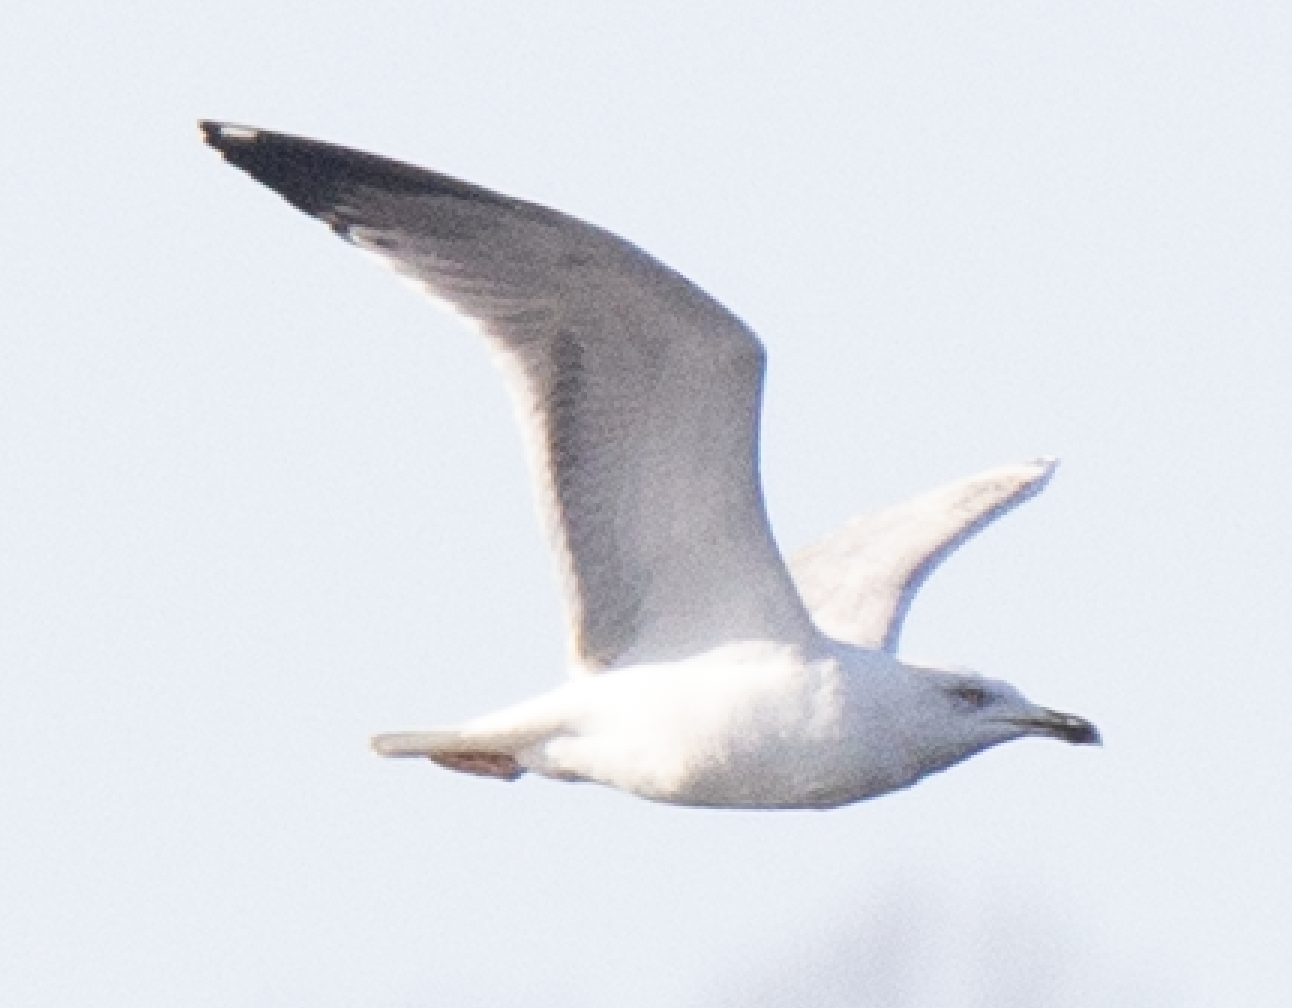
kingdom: Animalia
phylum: Chordata
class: Aves
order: Charadriiformes
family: Laridae
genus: Larus
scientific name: Larus michahellis
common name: Yellow-legged gull
